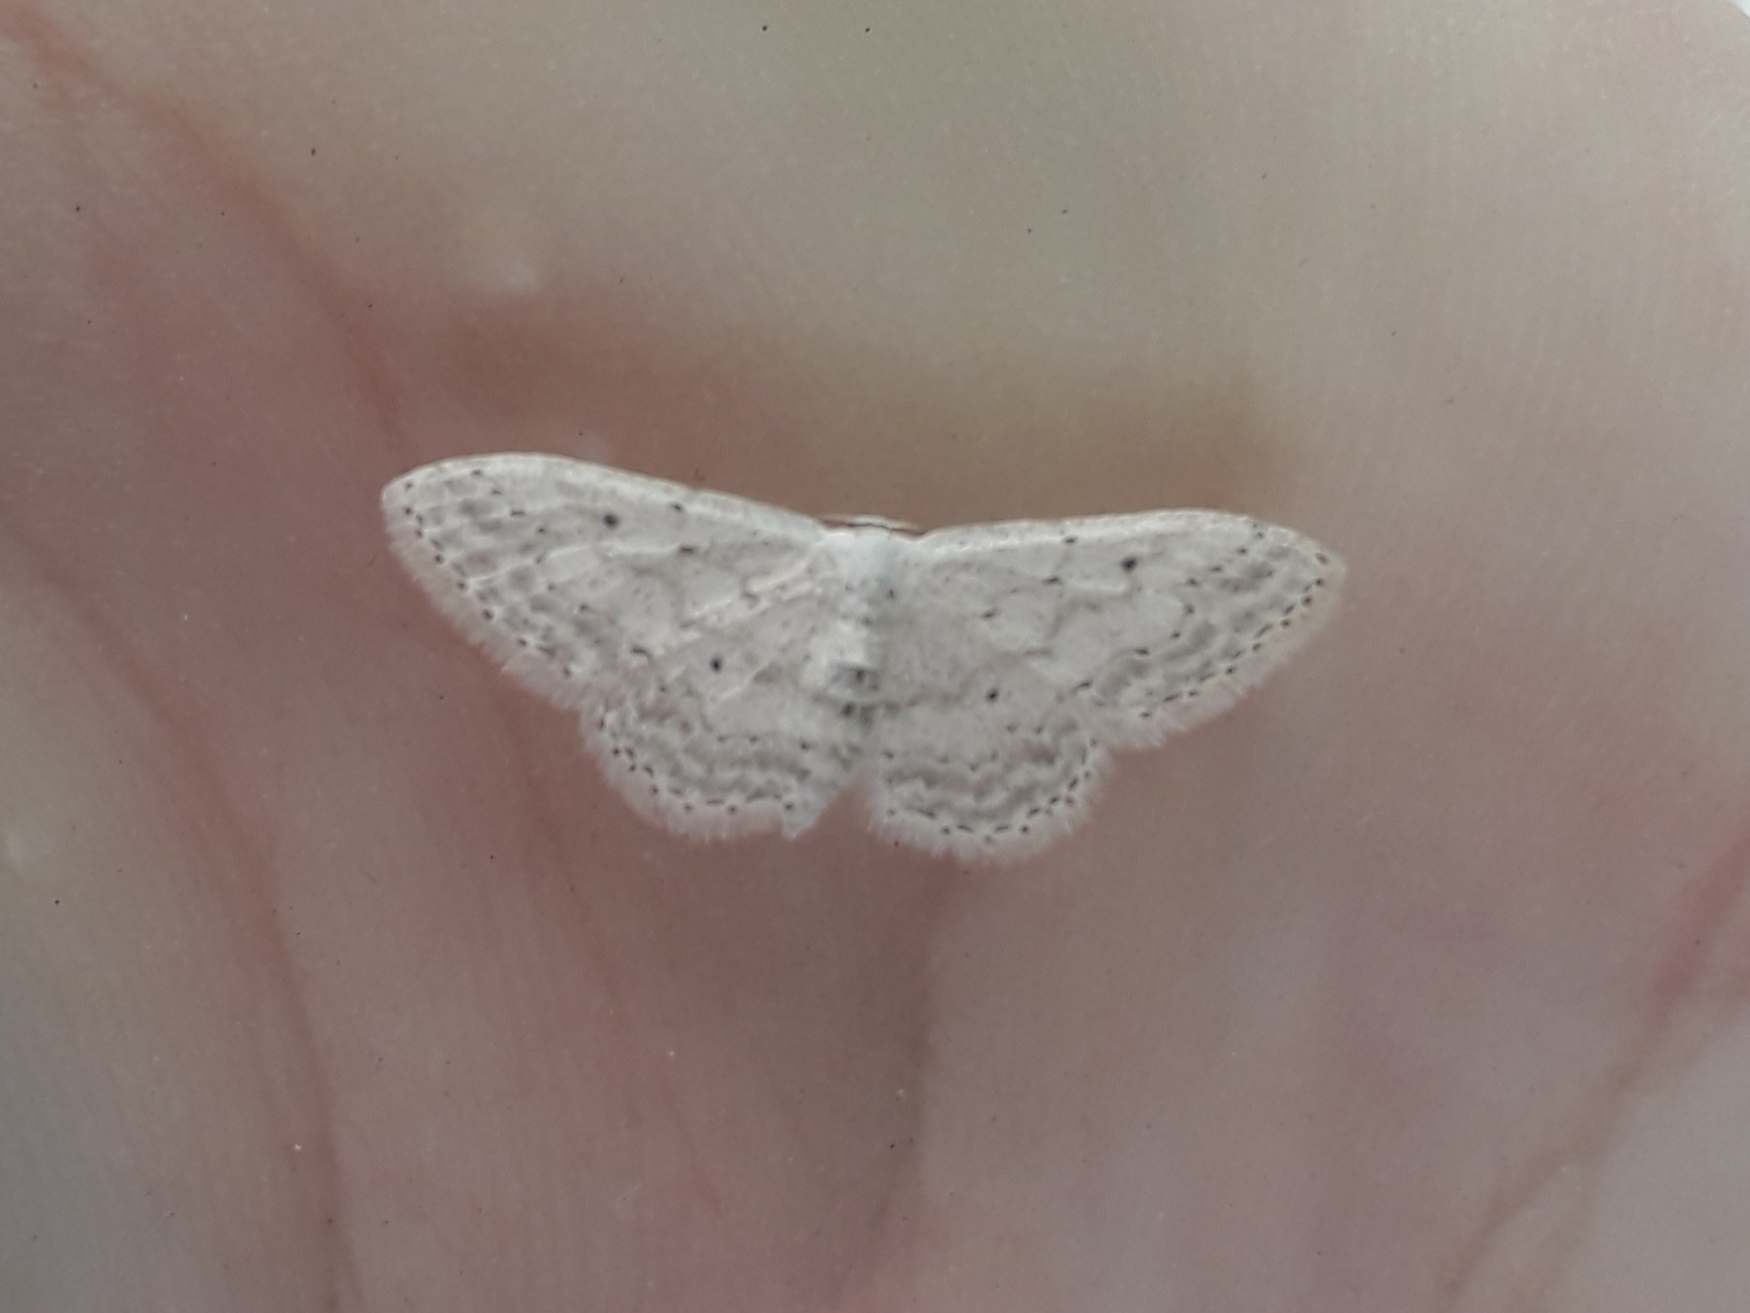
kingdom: Animalia
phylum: Arthropoda
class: Insecta
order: Lepidoptera
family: Geometridae
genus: Idaea
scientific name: Idaea seriata
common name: Small dusty wave
